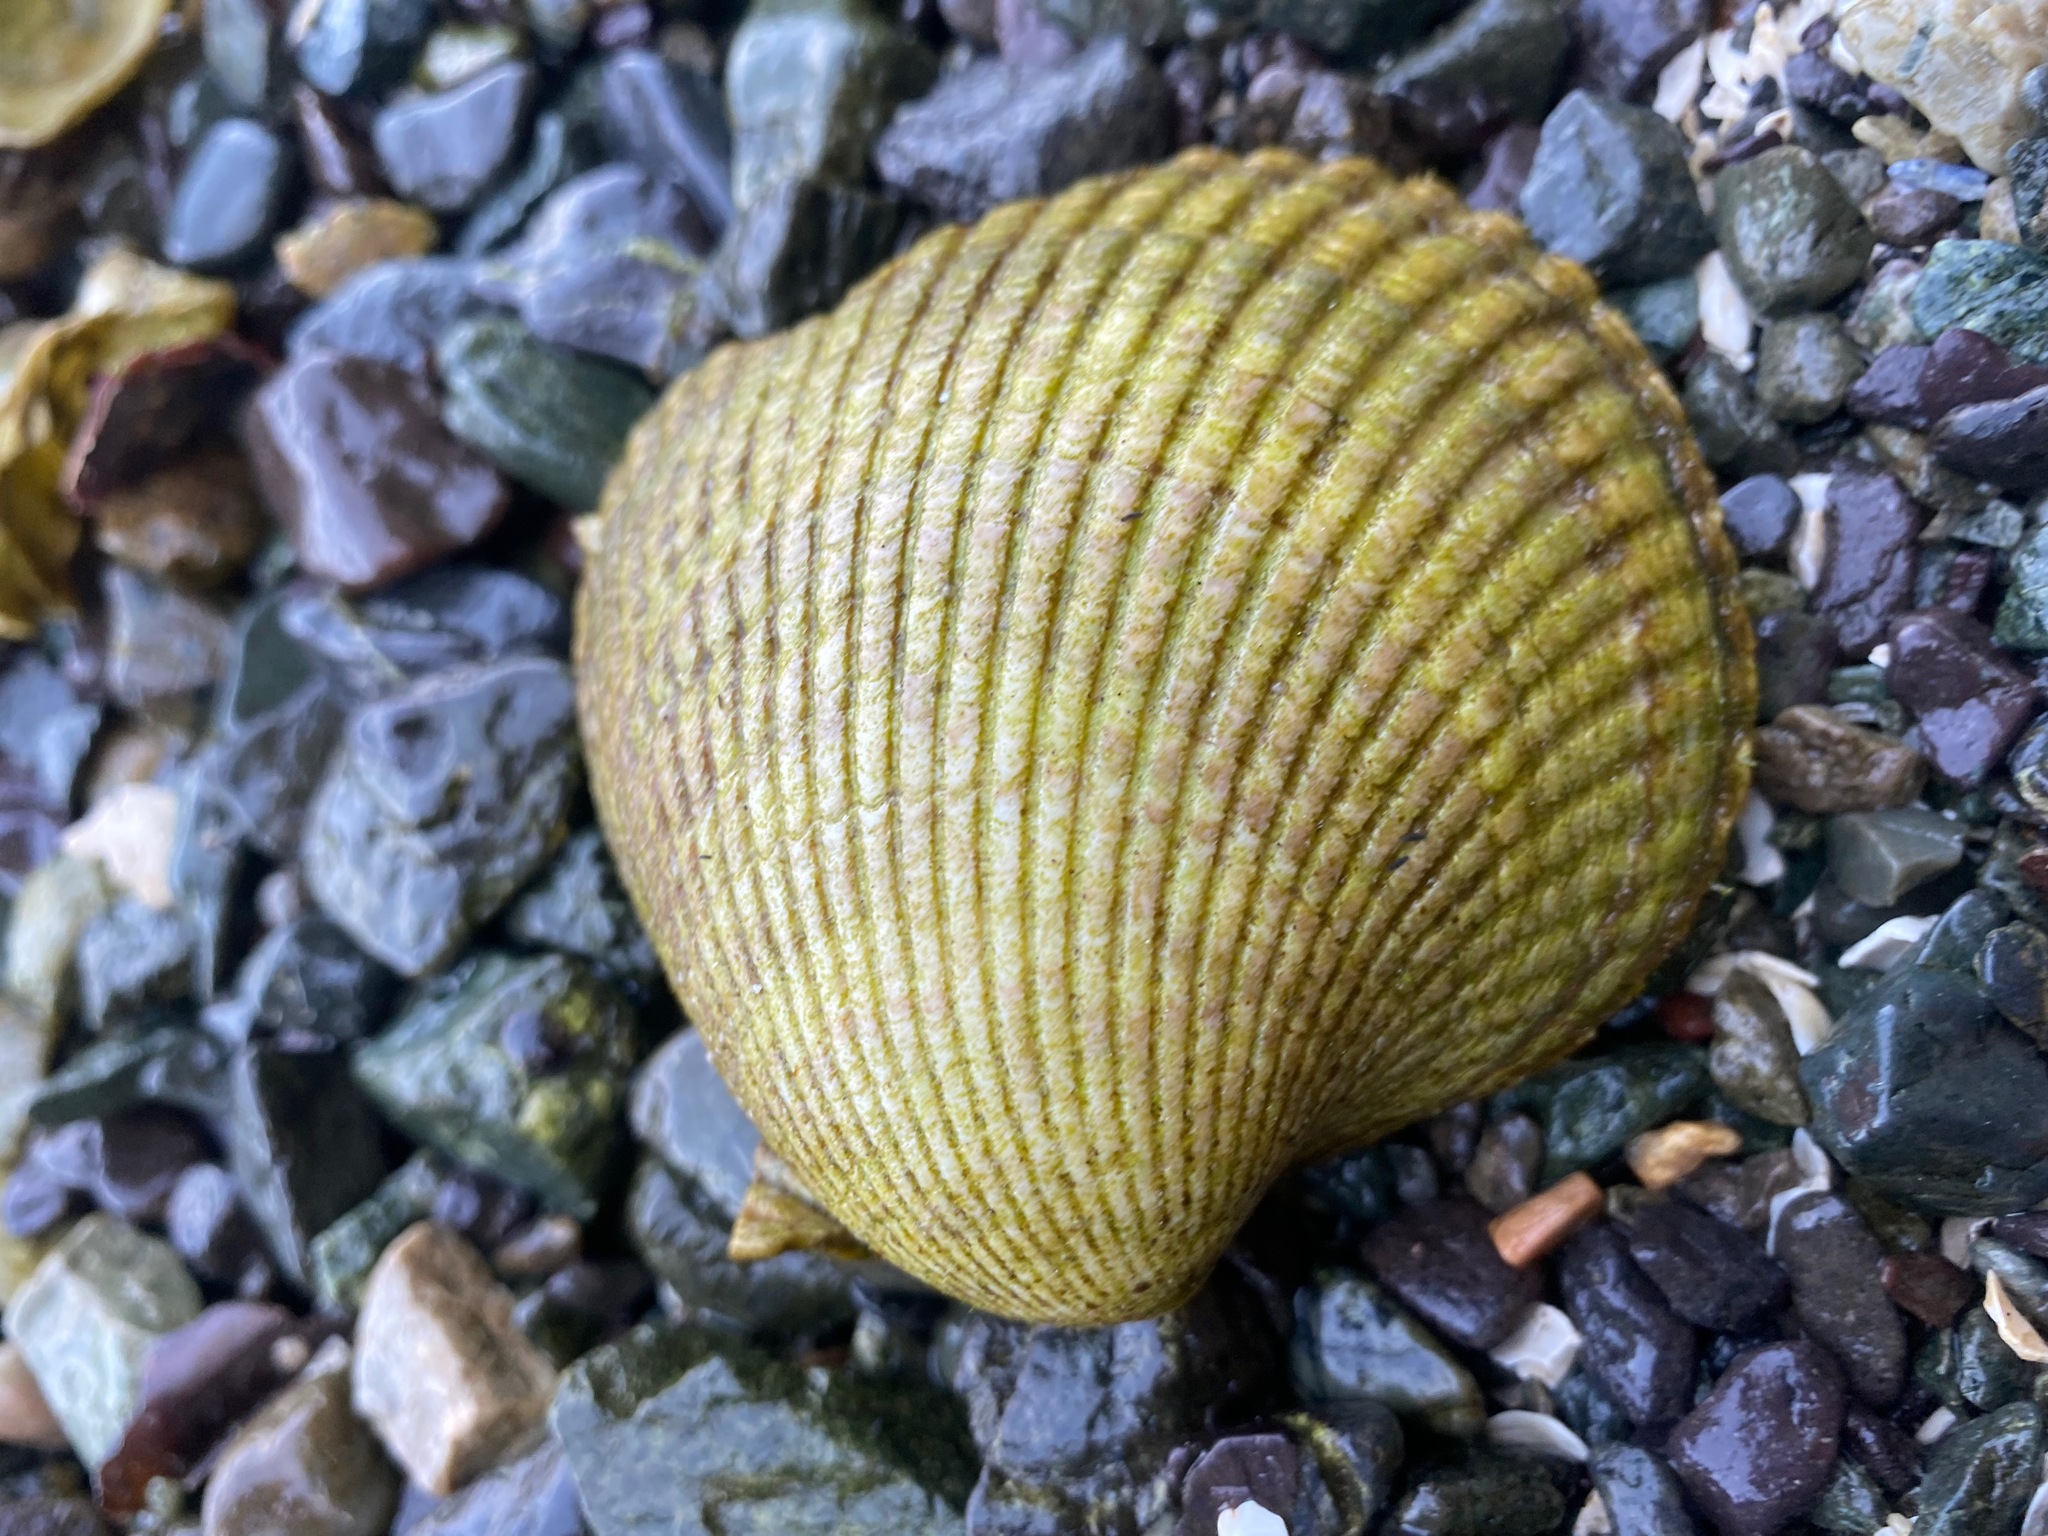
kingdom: Animalia
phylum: Mollusca
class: Bivalvia
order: Cardiida
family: Cardiidae
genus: Clinocardium
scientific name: Clinocardium nuttallii
